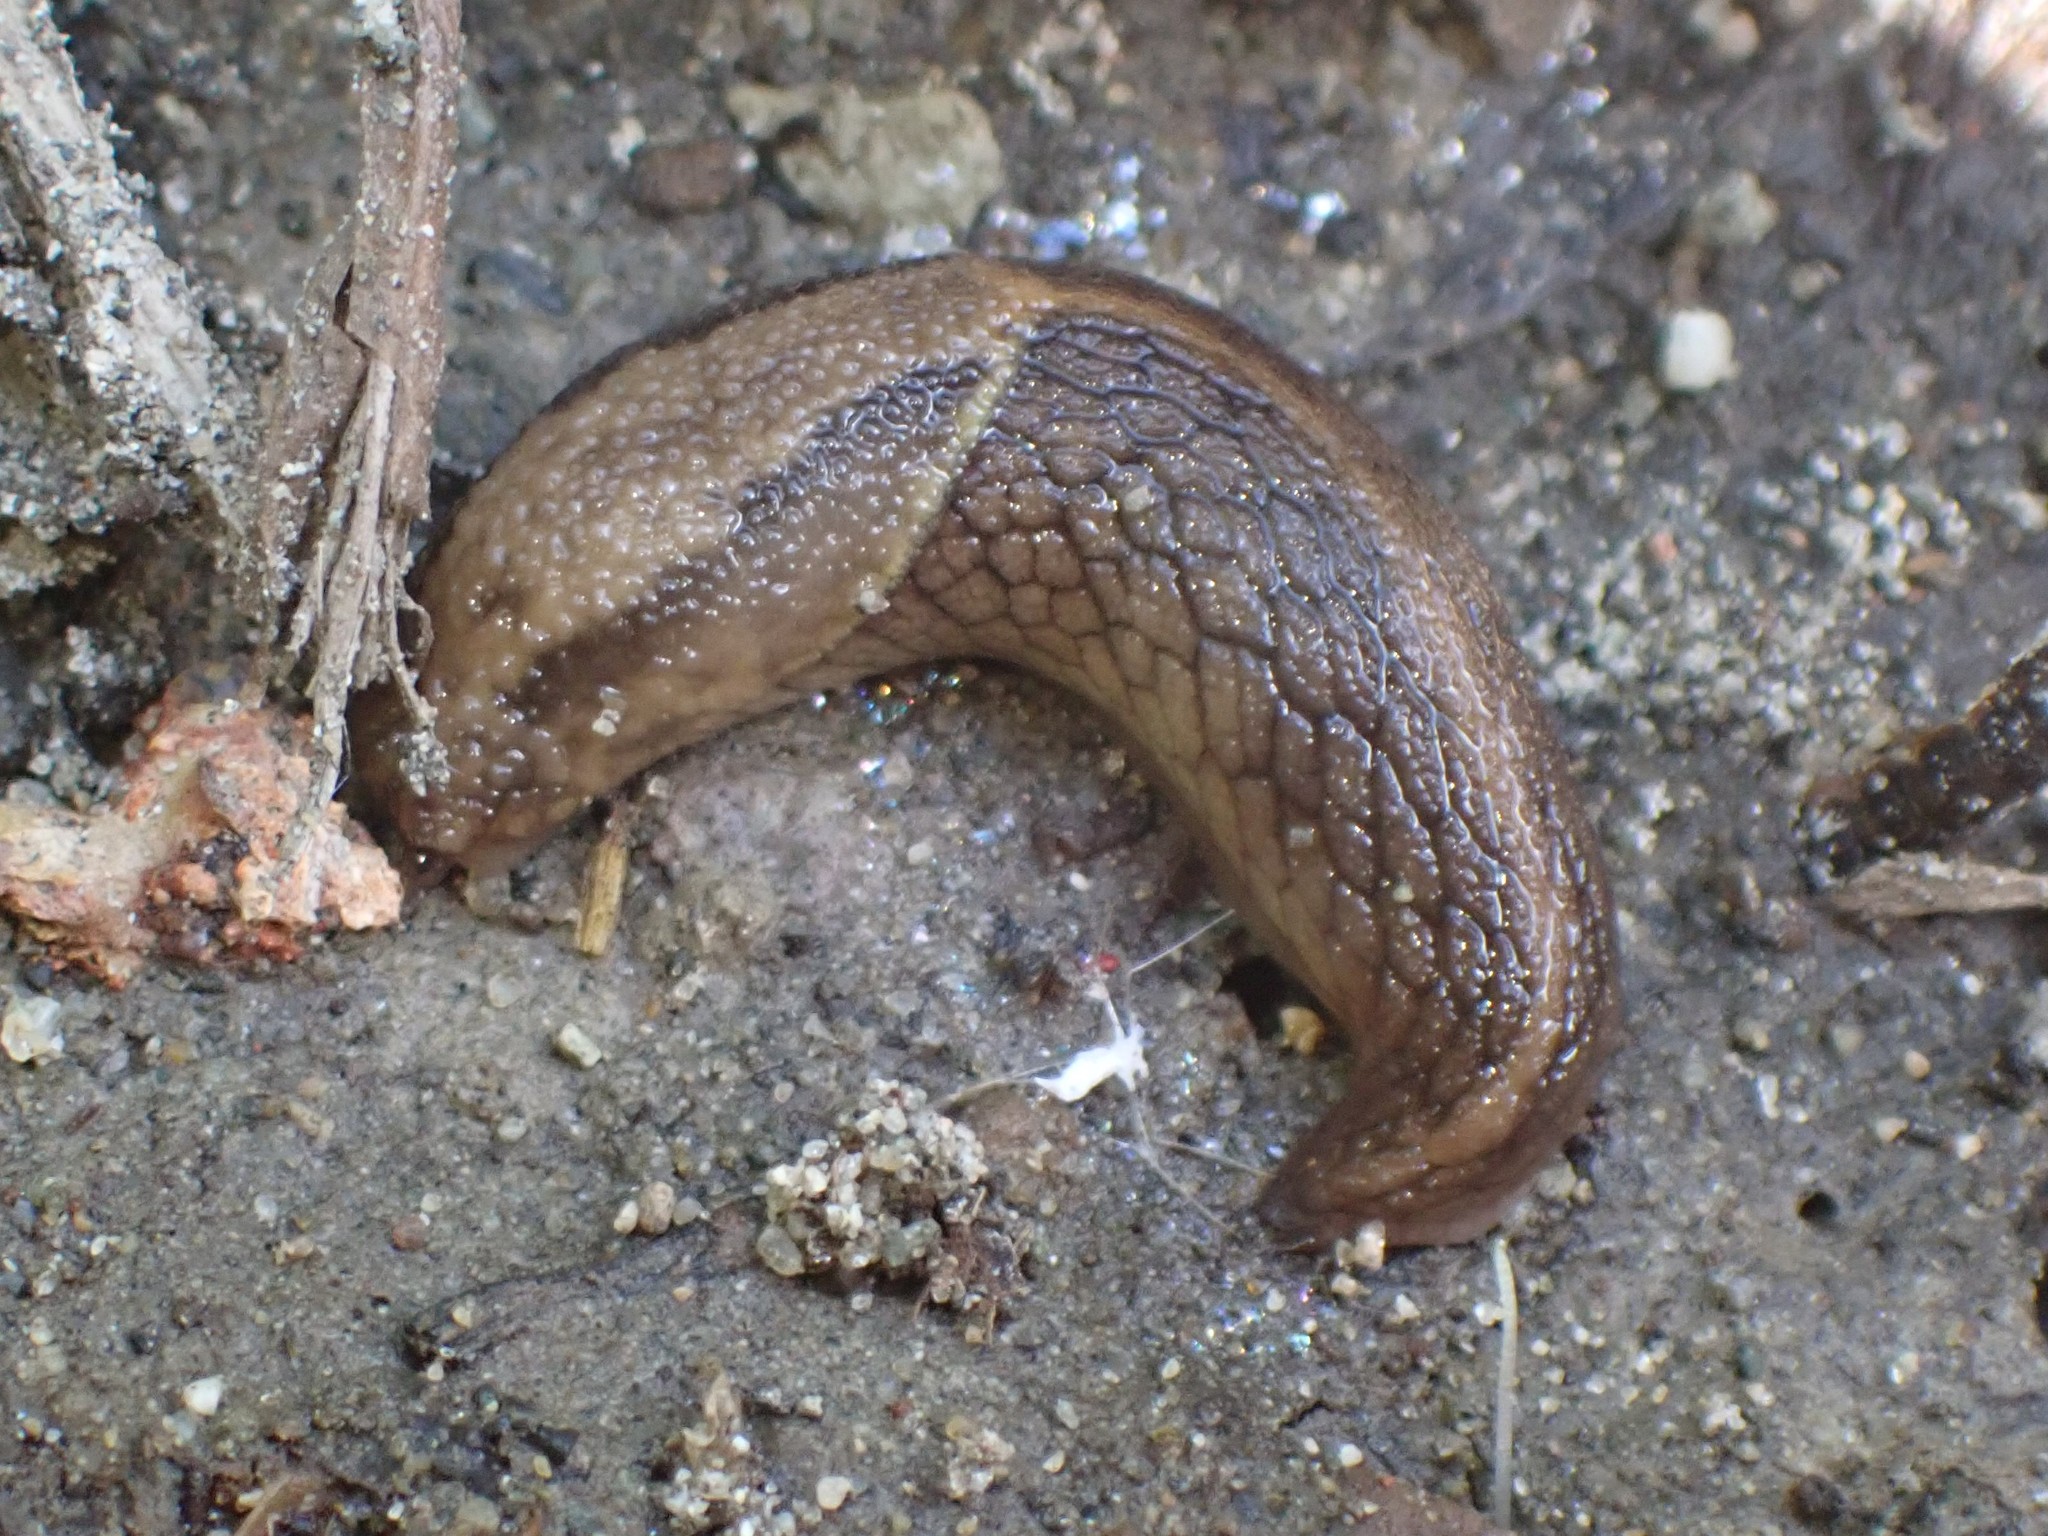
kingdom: Animalia
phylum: Mollusca
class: Gastropoda
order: Stylommatophora
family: Ariolimacidae
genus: Prophysaon
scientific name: Prophysaon andersonii
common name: Reticulate taildropper
